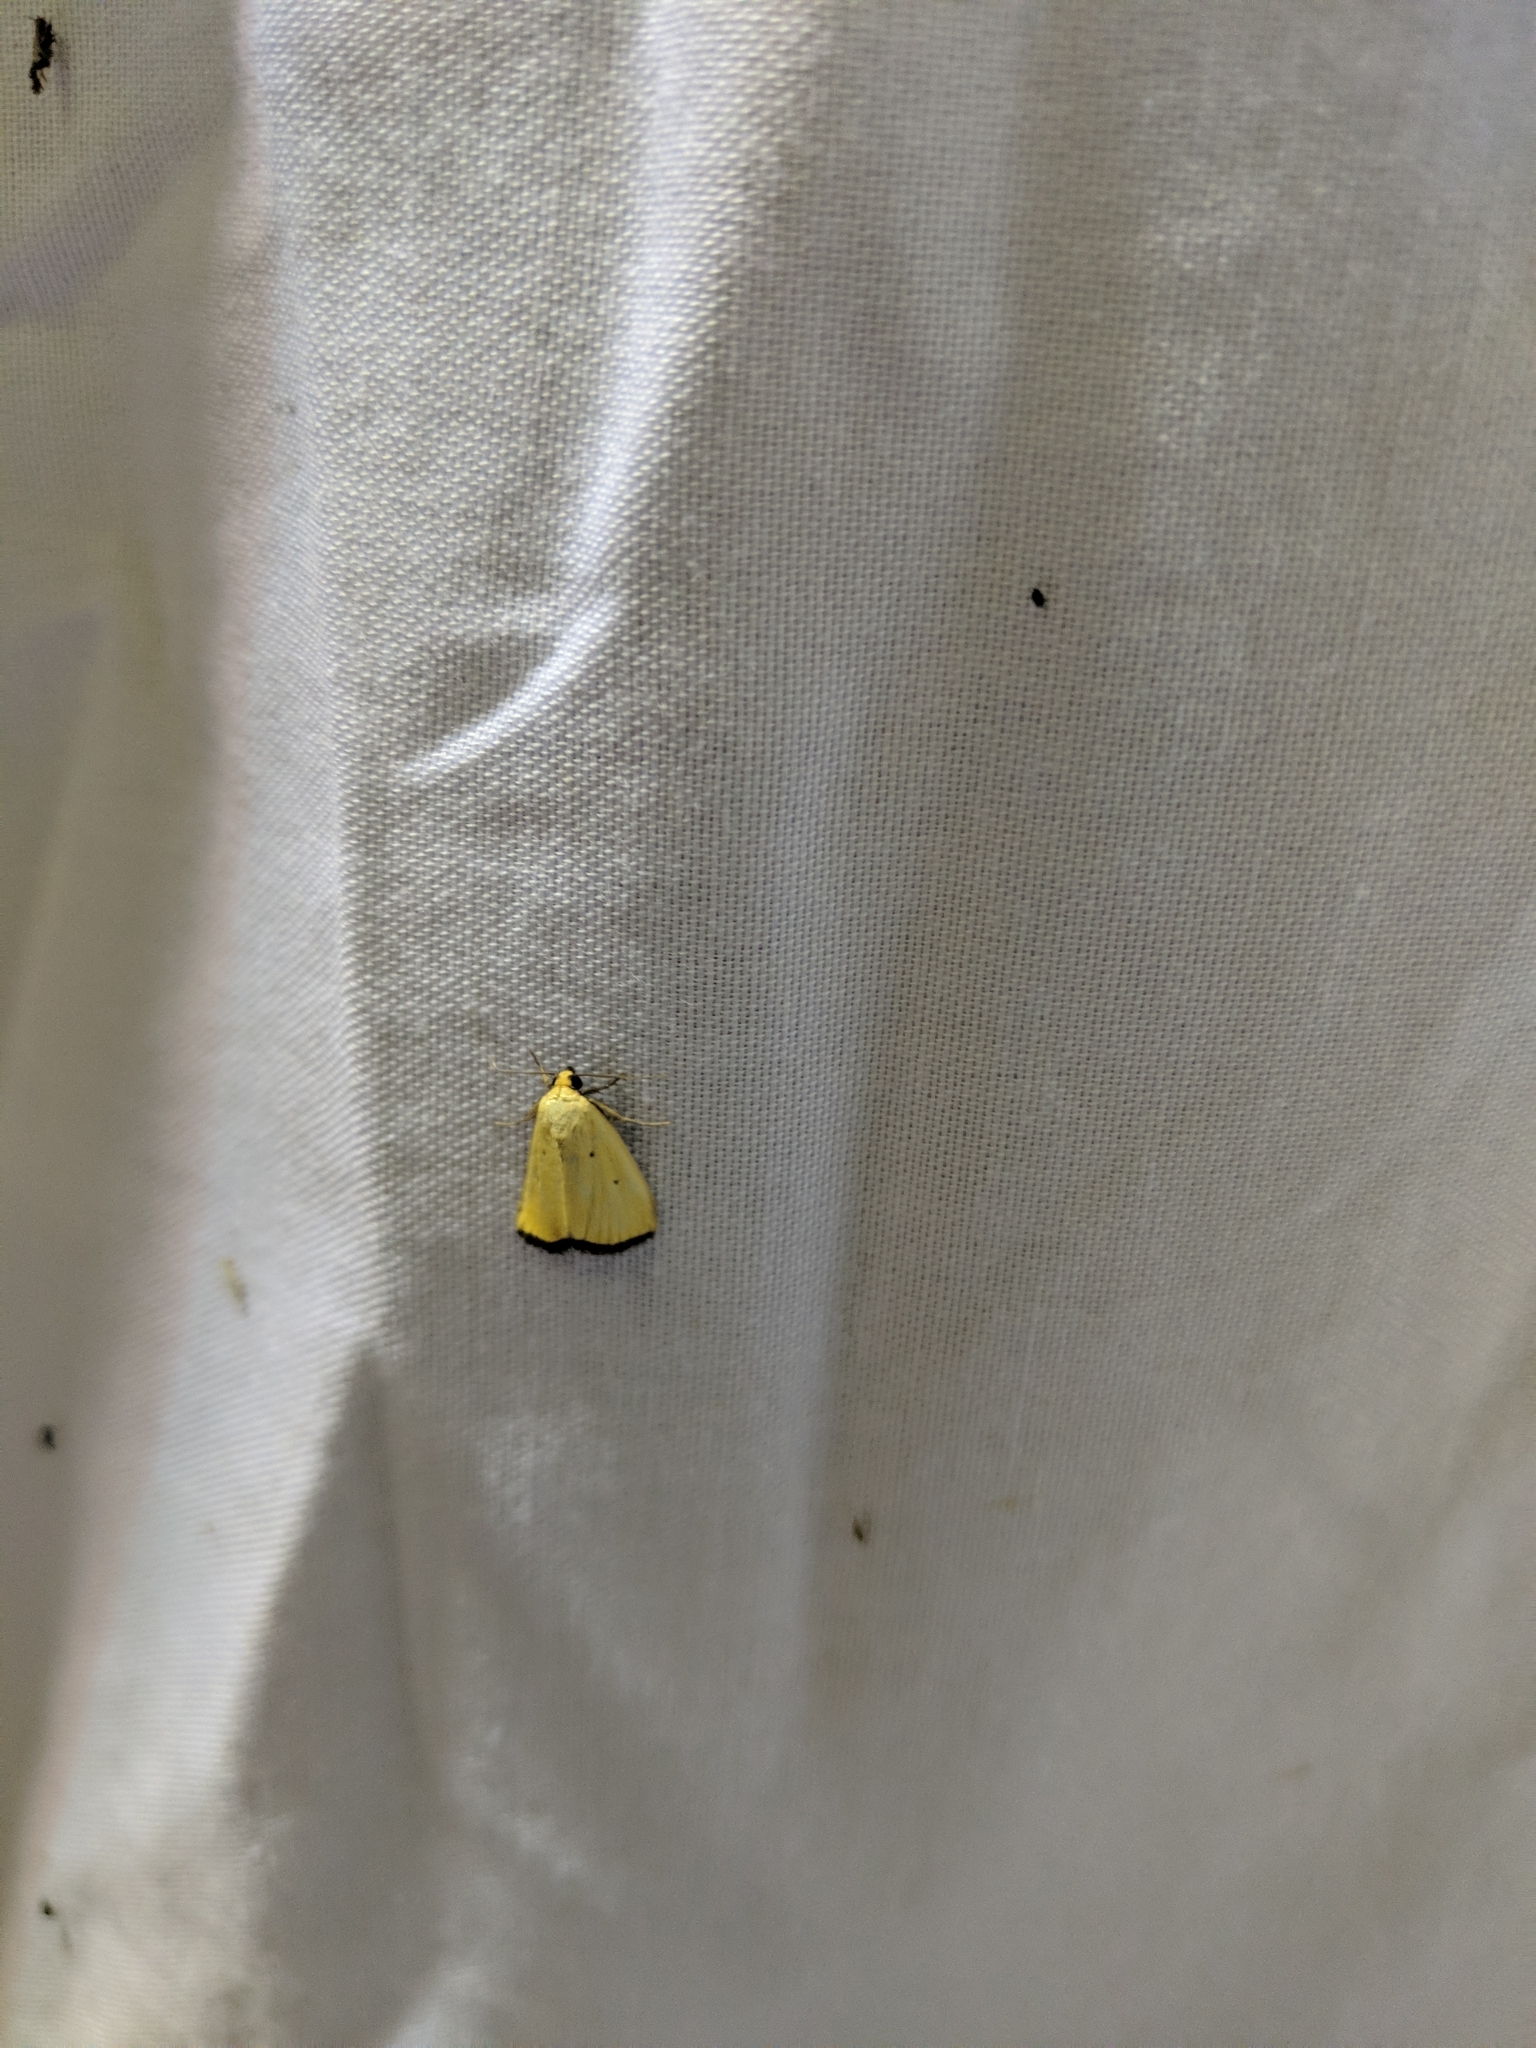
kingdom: Animalia
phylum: Arthropoda
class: Insecta
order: Lepidoptera
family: Noctuidae
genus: Marimatha
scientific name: Marimatha nigrofimbria
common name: Black-bordered lemon moth
